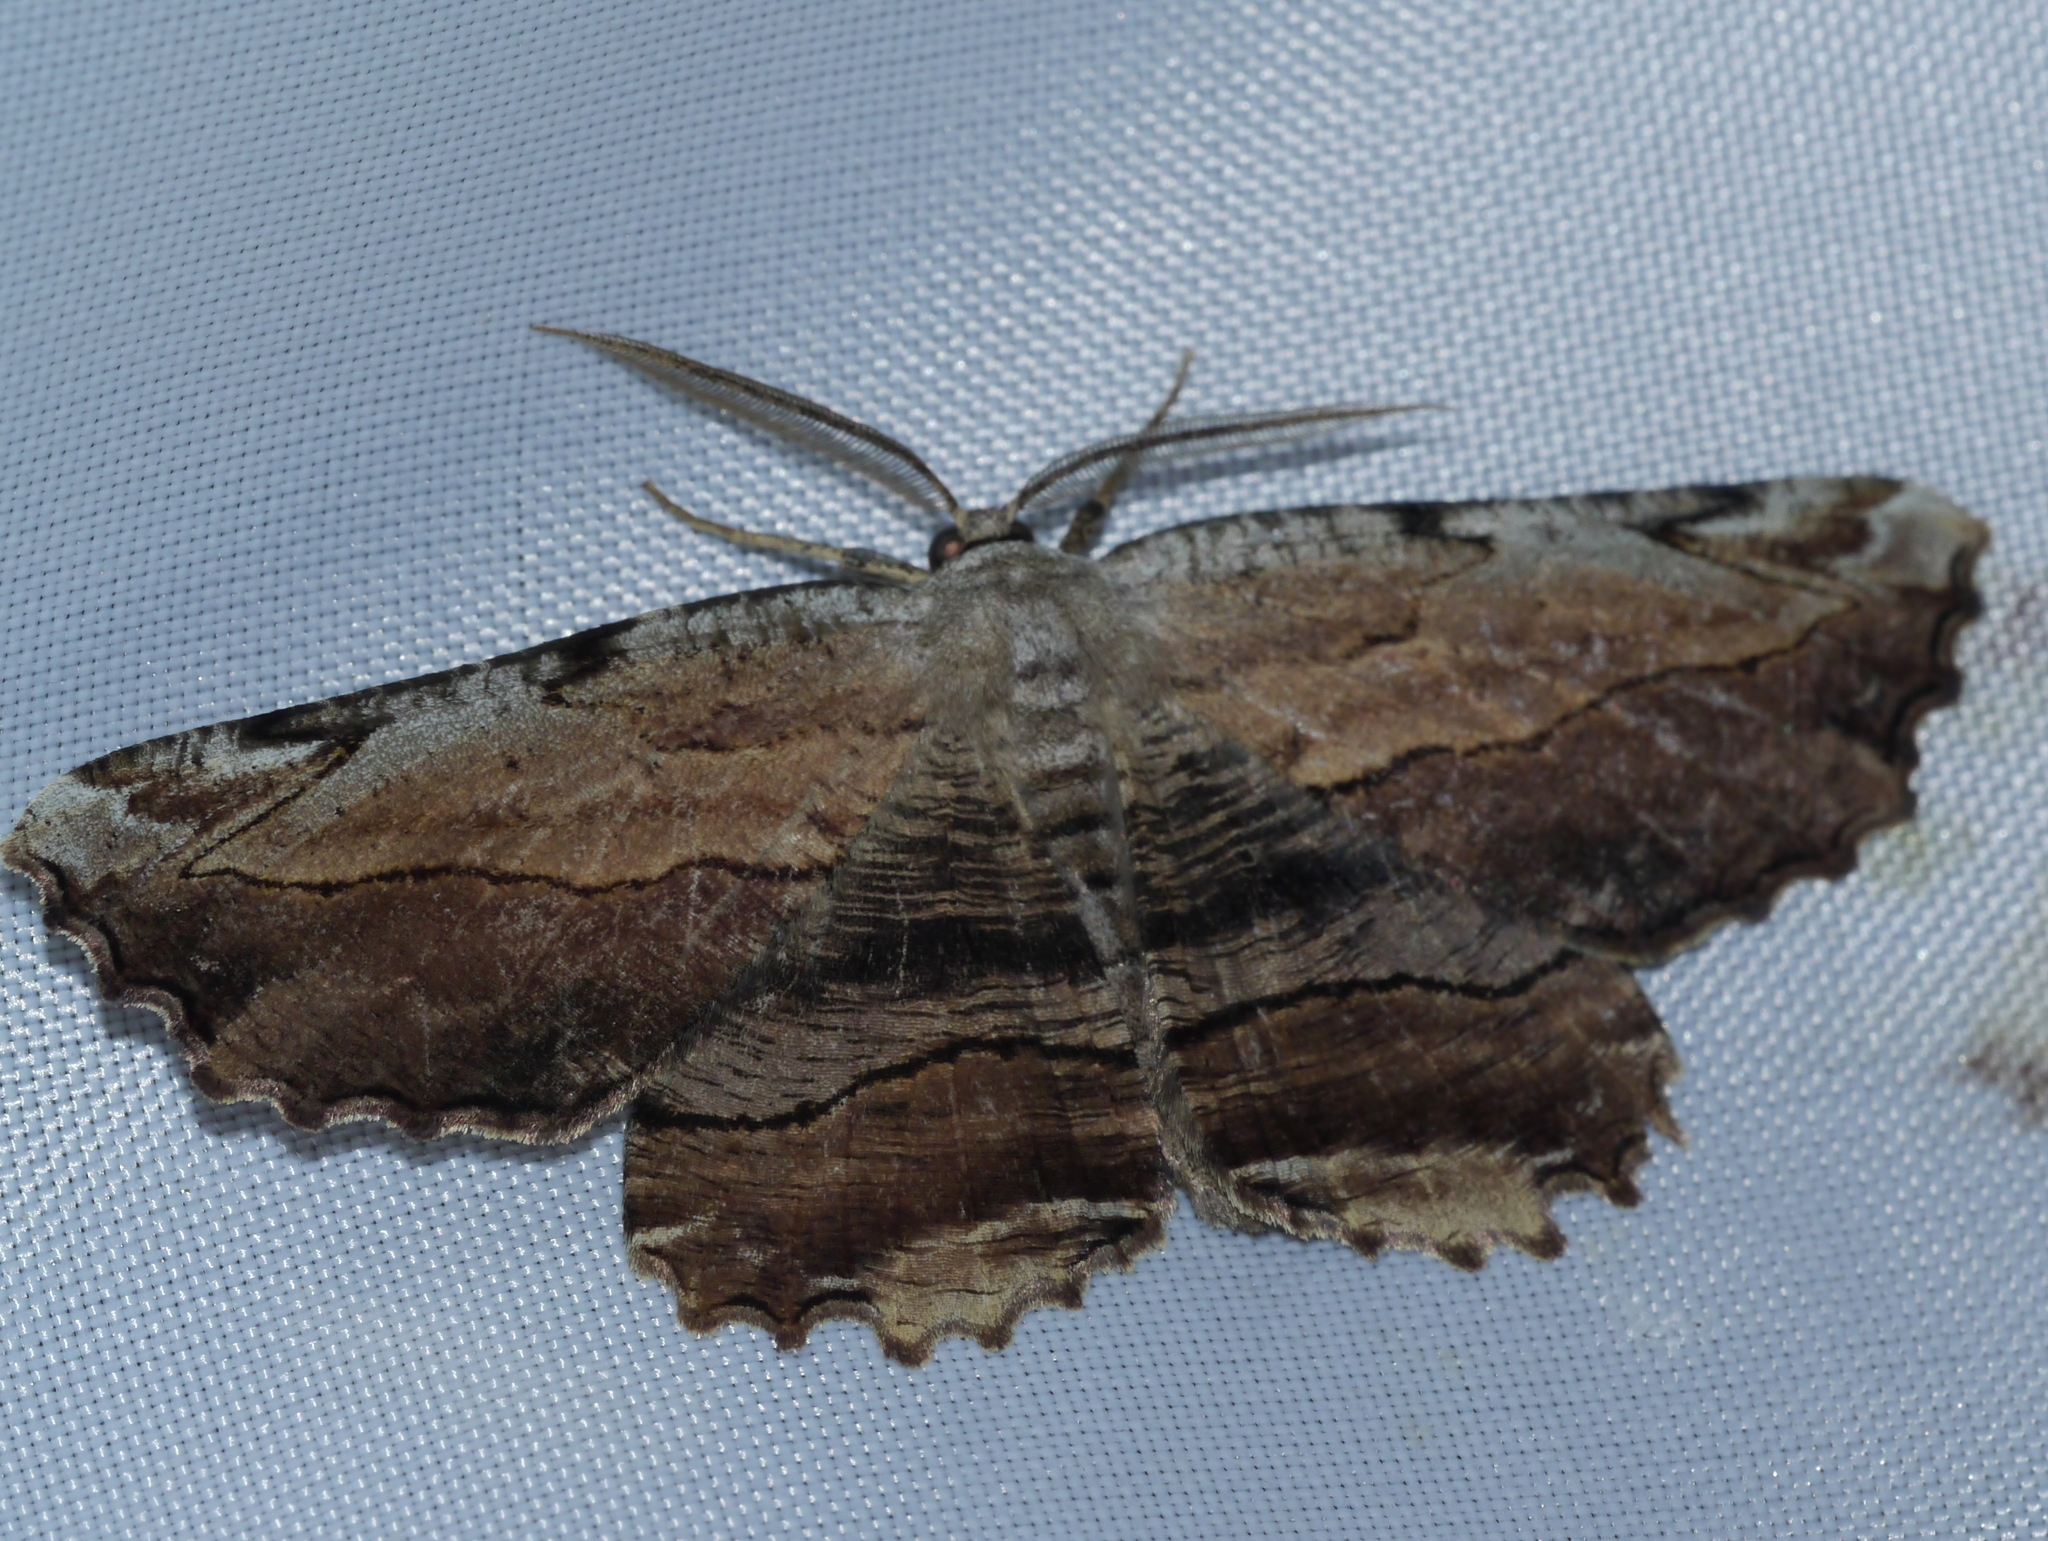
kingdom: Animalia
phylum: Arthropoda
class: Insecta
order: Lepidoptera
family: Geometridae
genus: Lytrosis
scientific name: Lytrosis unitaria
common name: Common lytrosis
